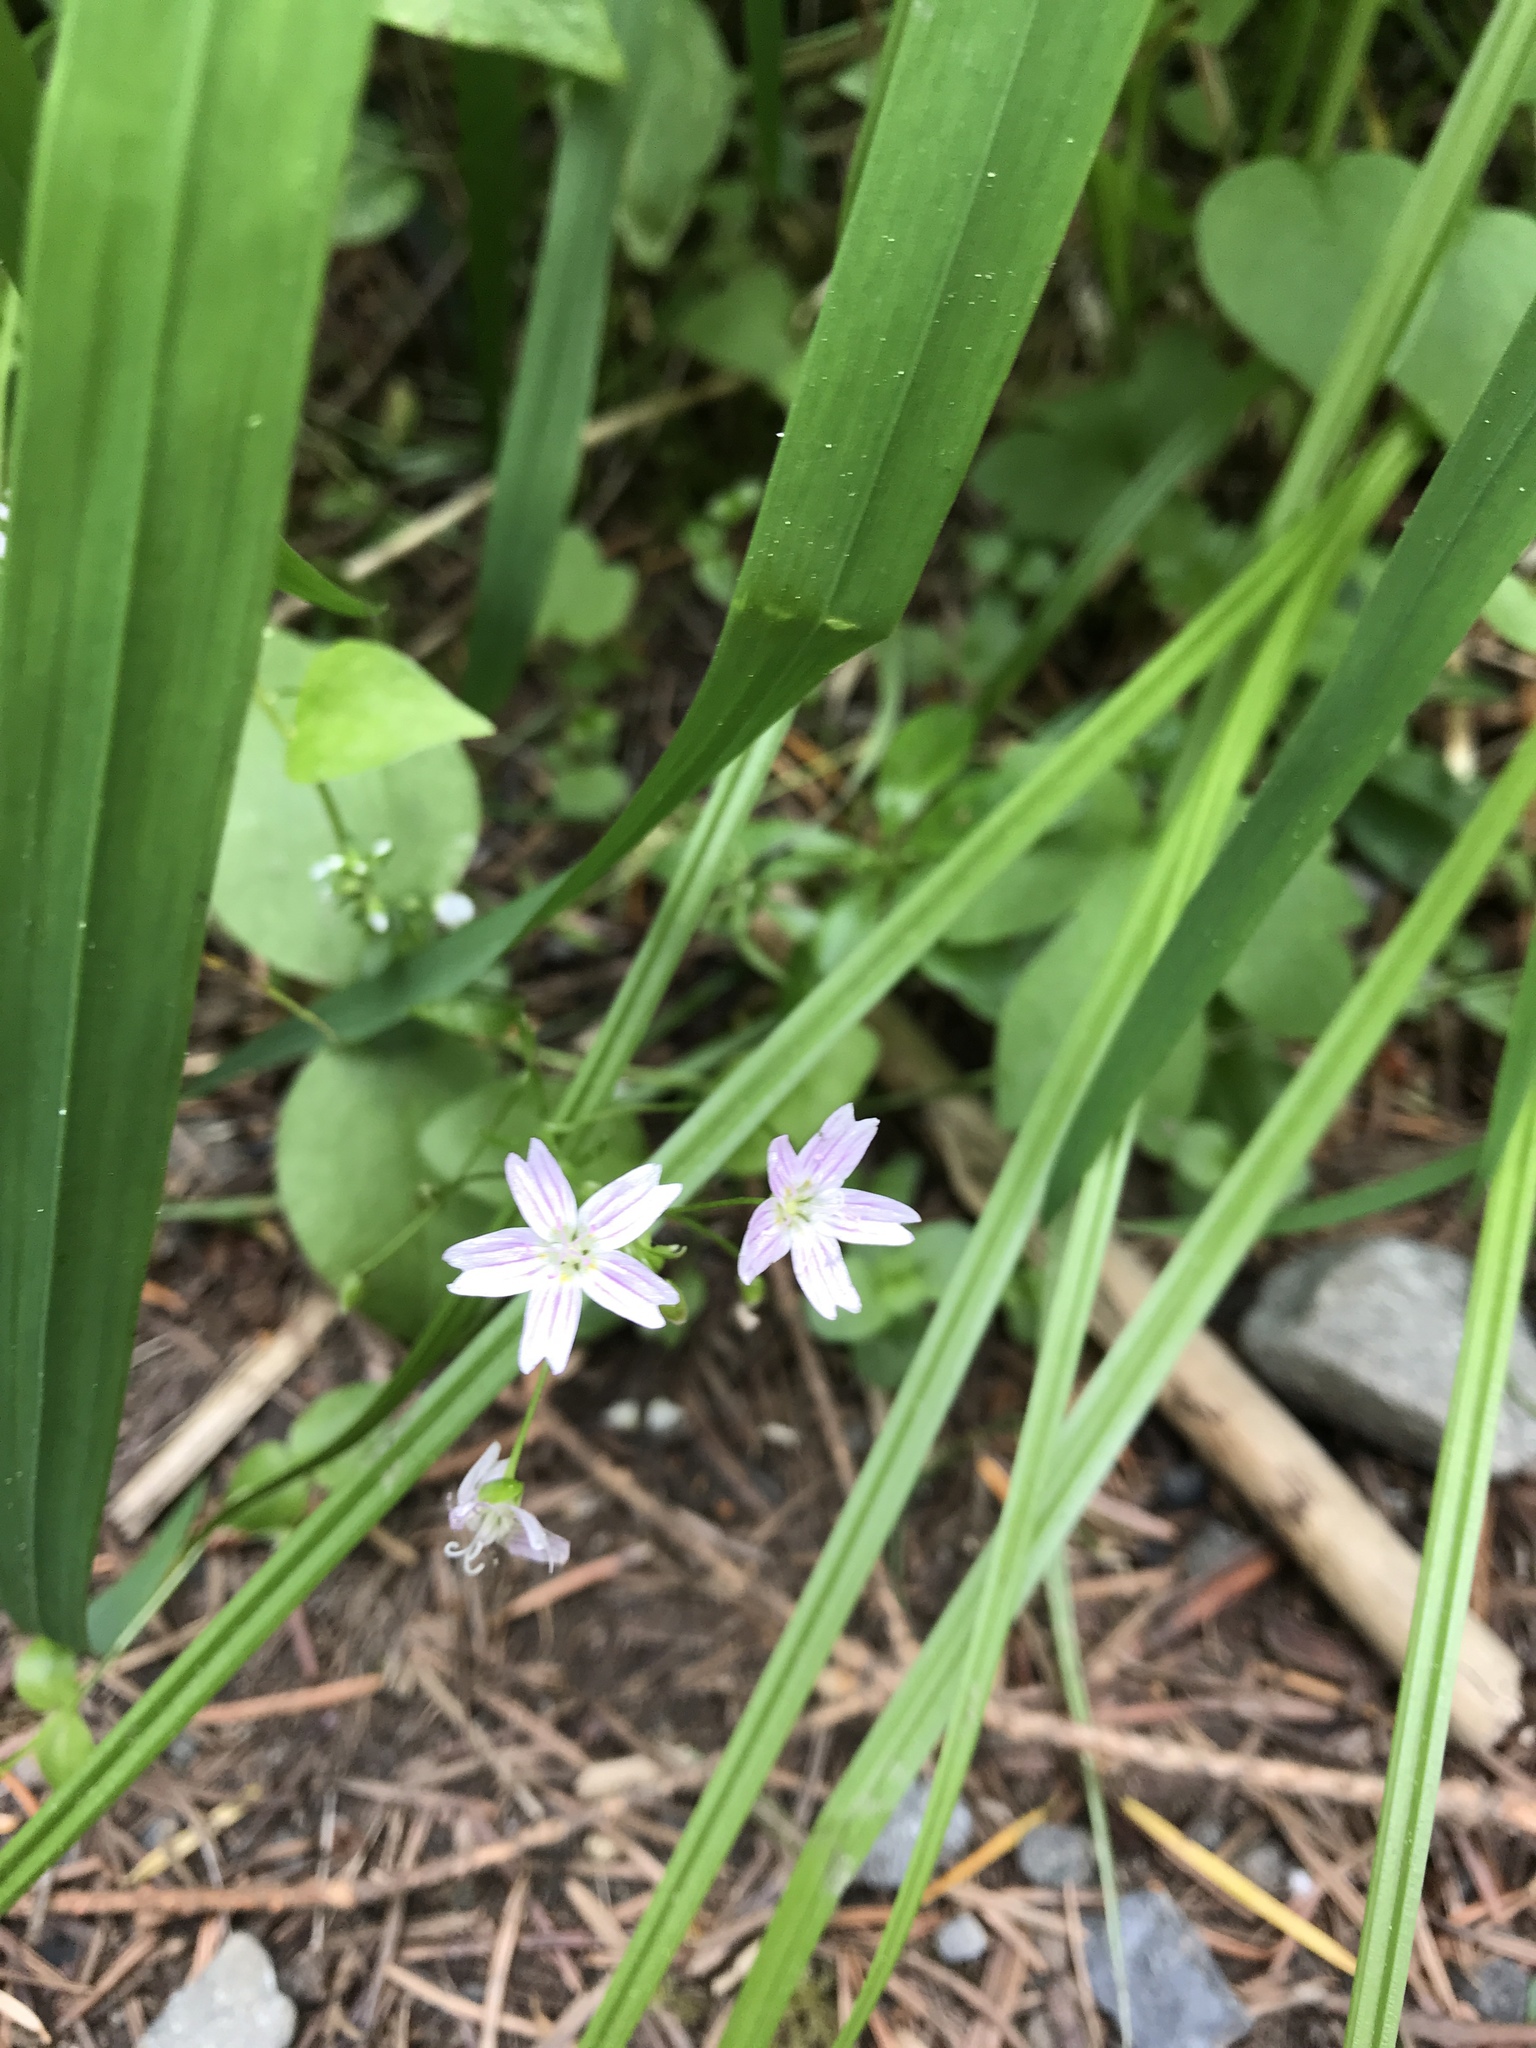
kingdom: Plantae
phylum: Tracheophyta
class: Magnoliopsida
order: Caryophyllales
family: Montiaceae
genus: Claytonia
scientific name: Claytonia sibirica
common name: Pink purslane
